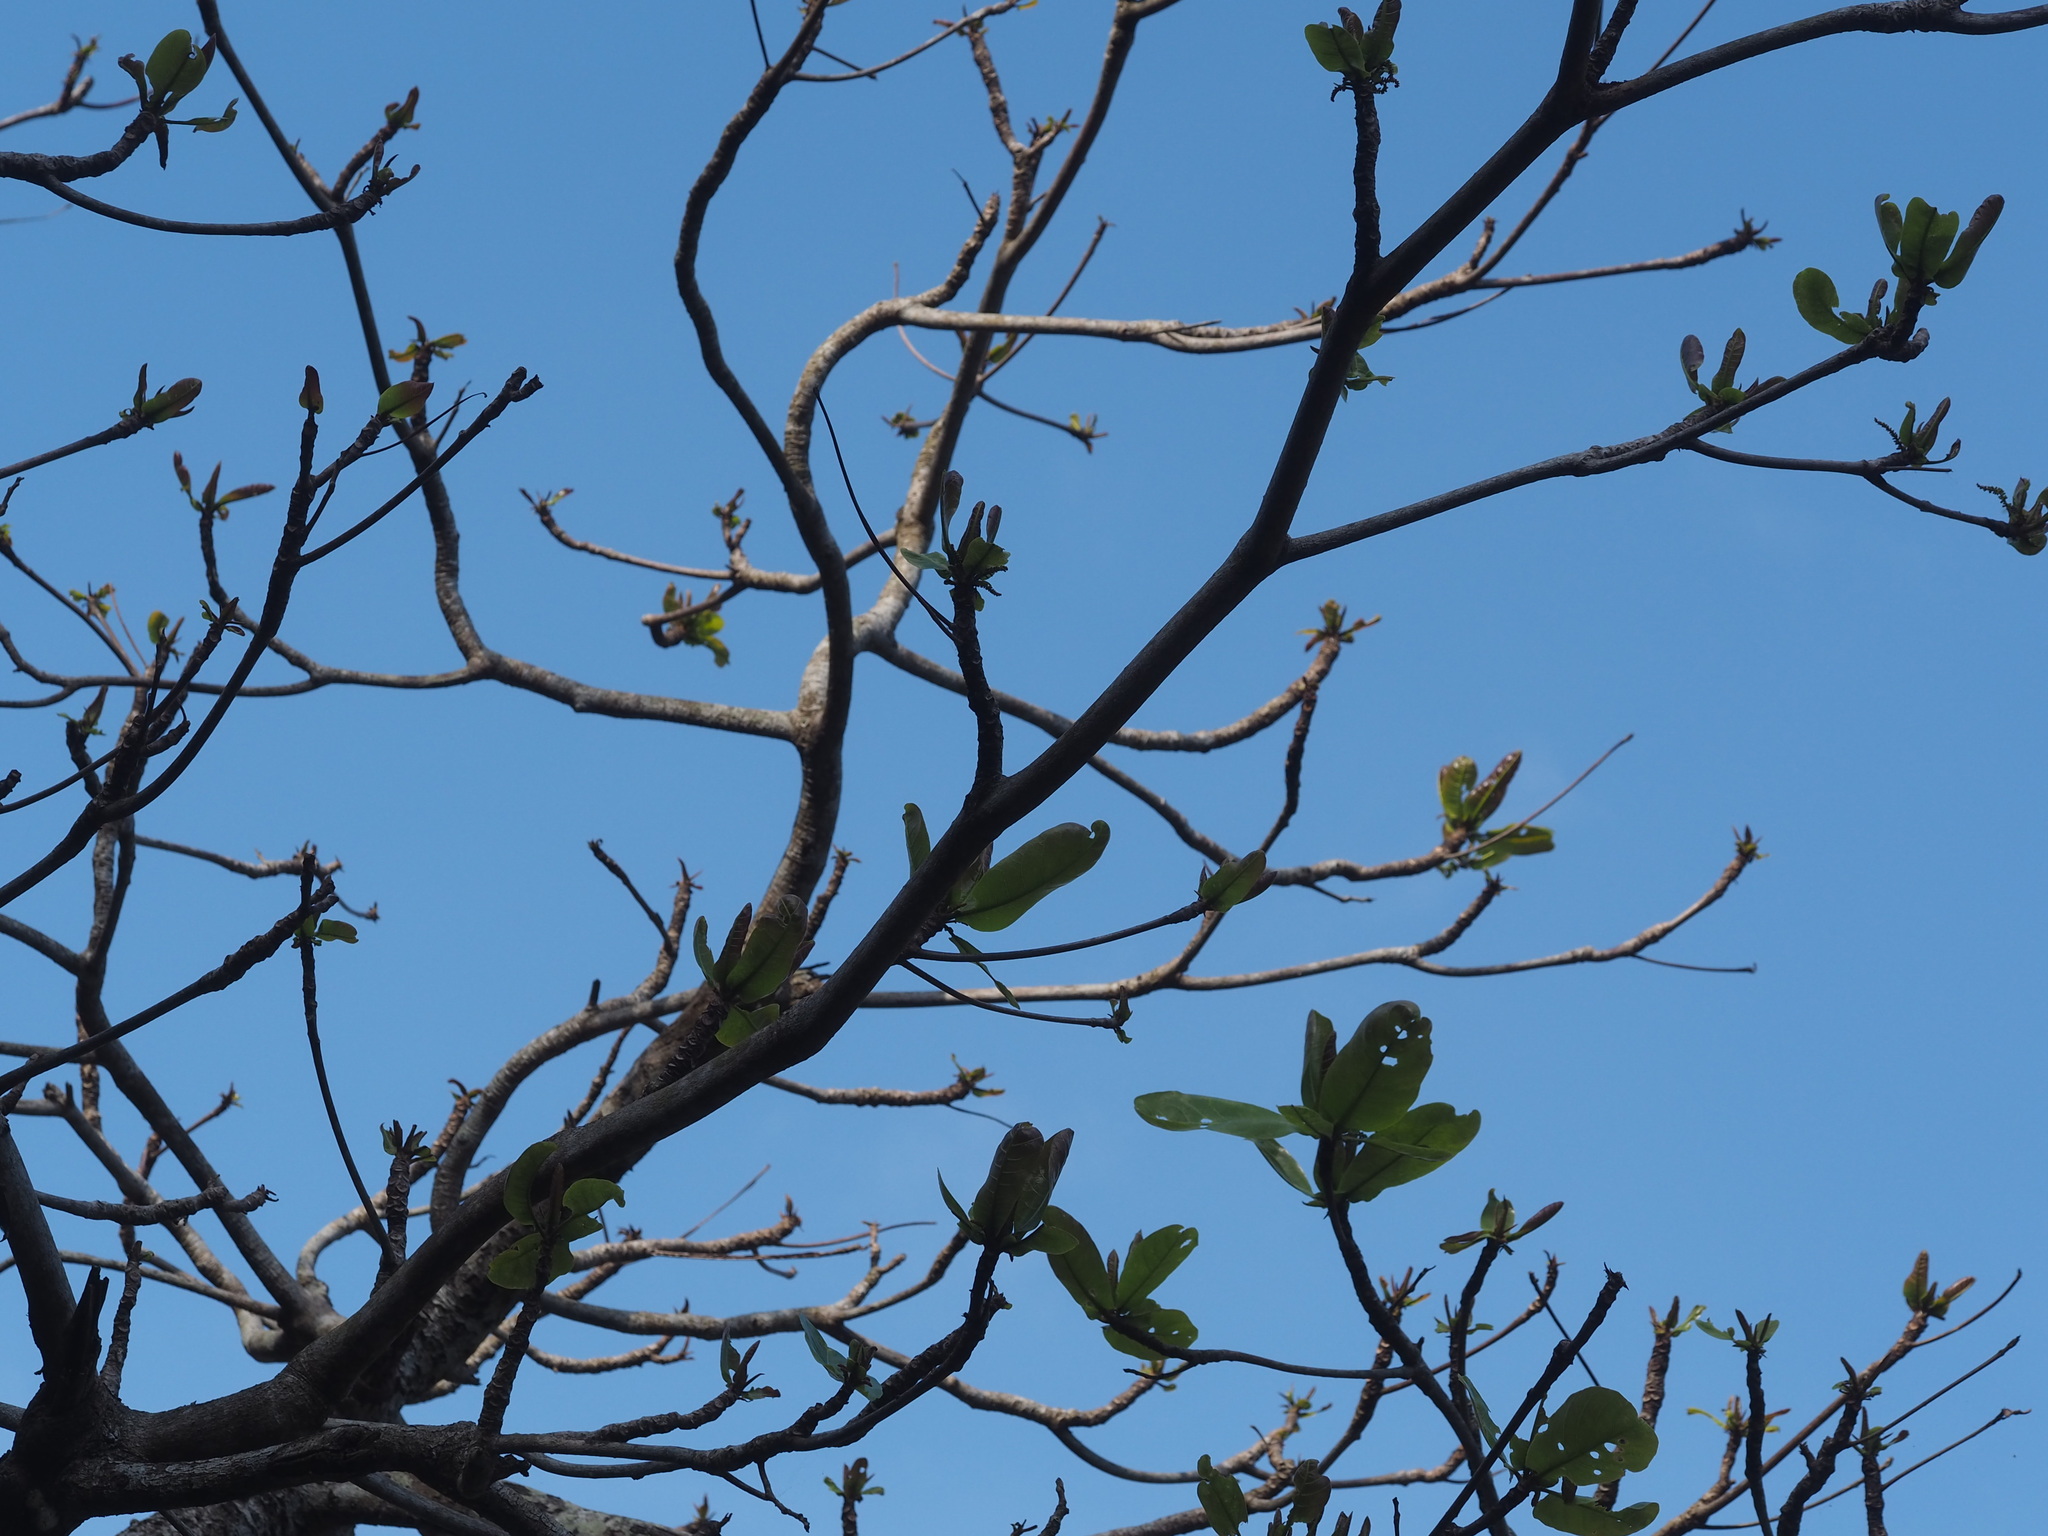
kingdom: Plantae
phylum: Tracheophyta
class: Magnoliopsida
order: Myrtales
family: Combretaceae
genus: Terminalia
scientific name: Terminalia catappa
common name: Tropical almond
